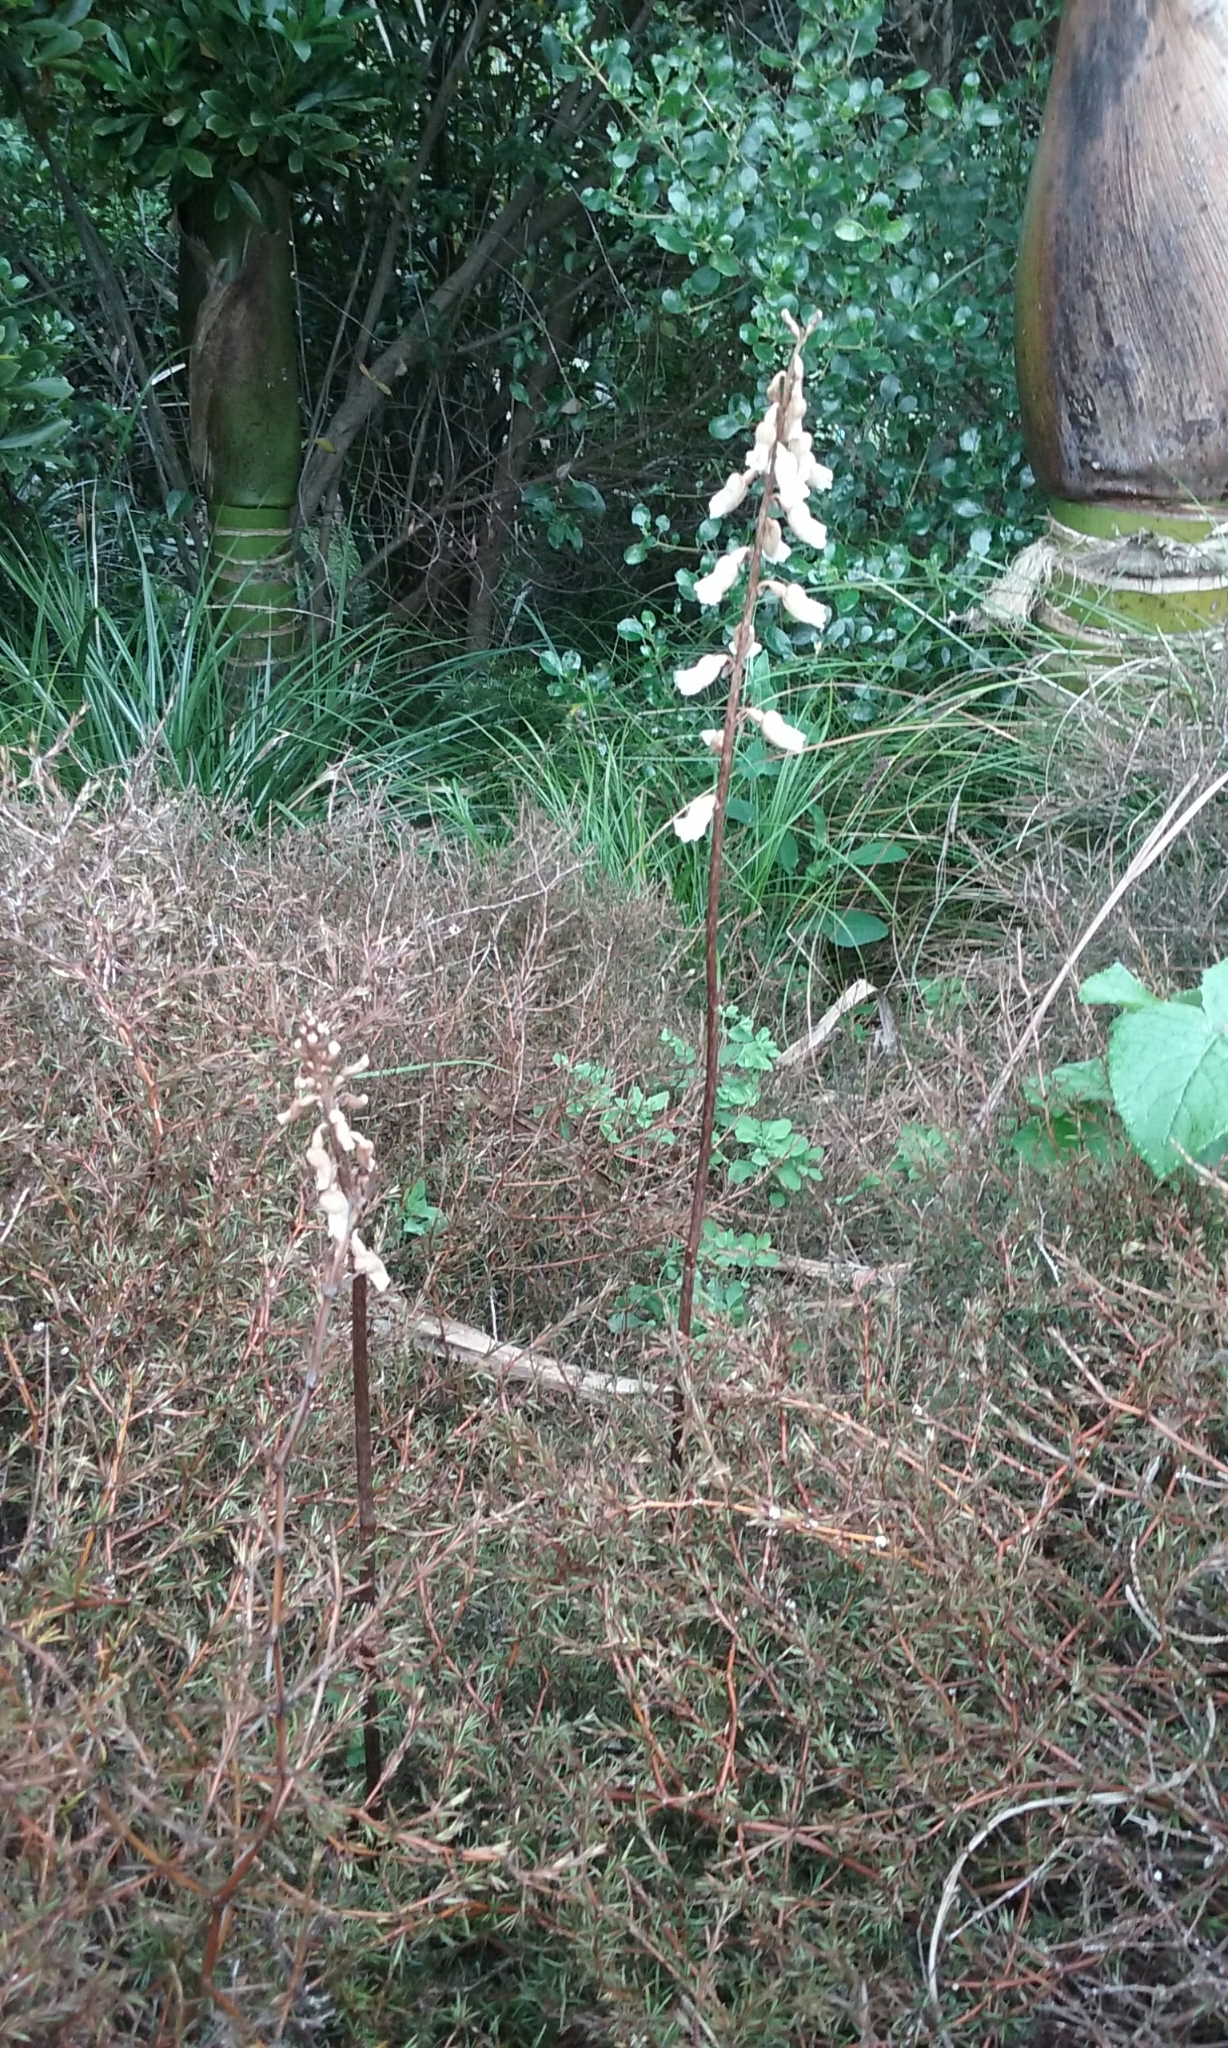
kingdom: Plantae
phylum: Tracheophyta
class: Liliopsida
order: Asparagales
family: Orchidaceae
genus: Gastrodia
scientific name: Gastrodia sesamoides
